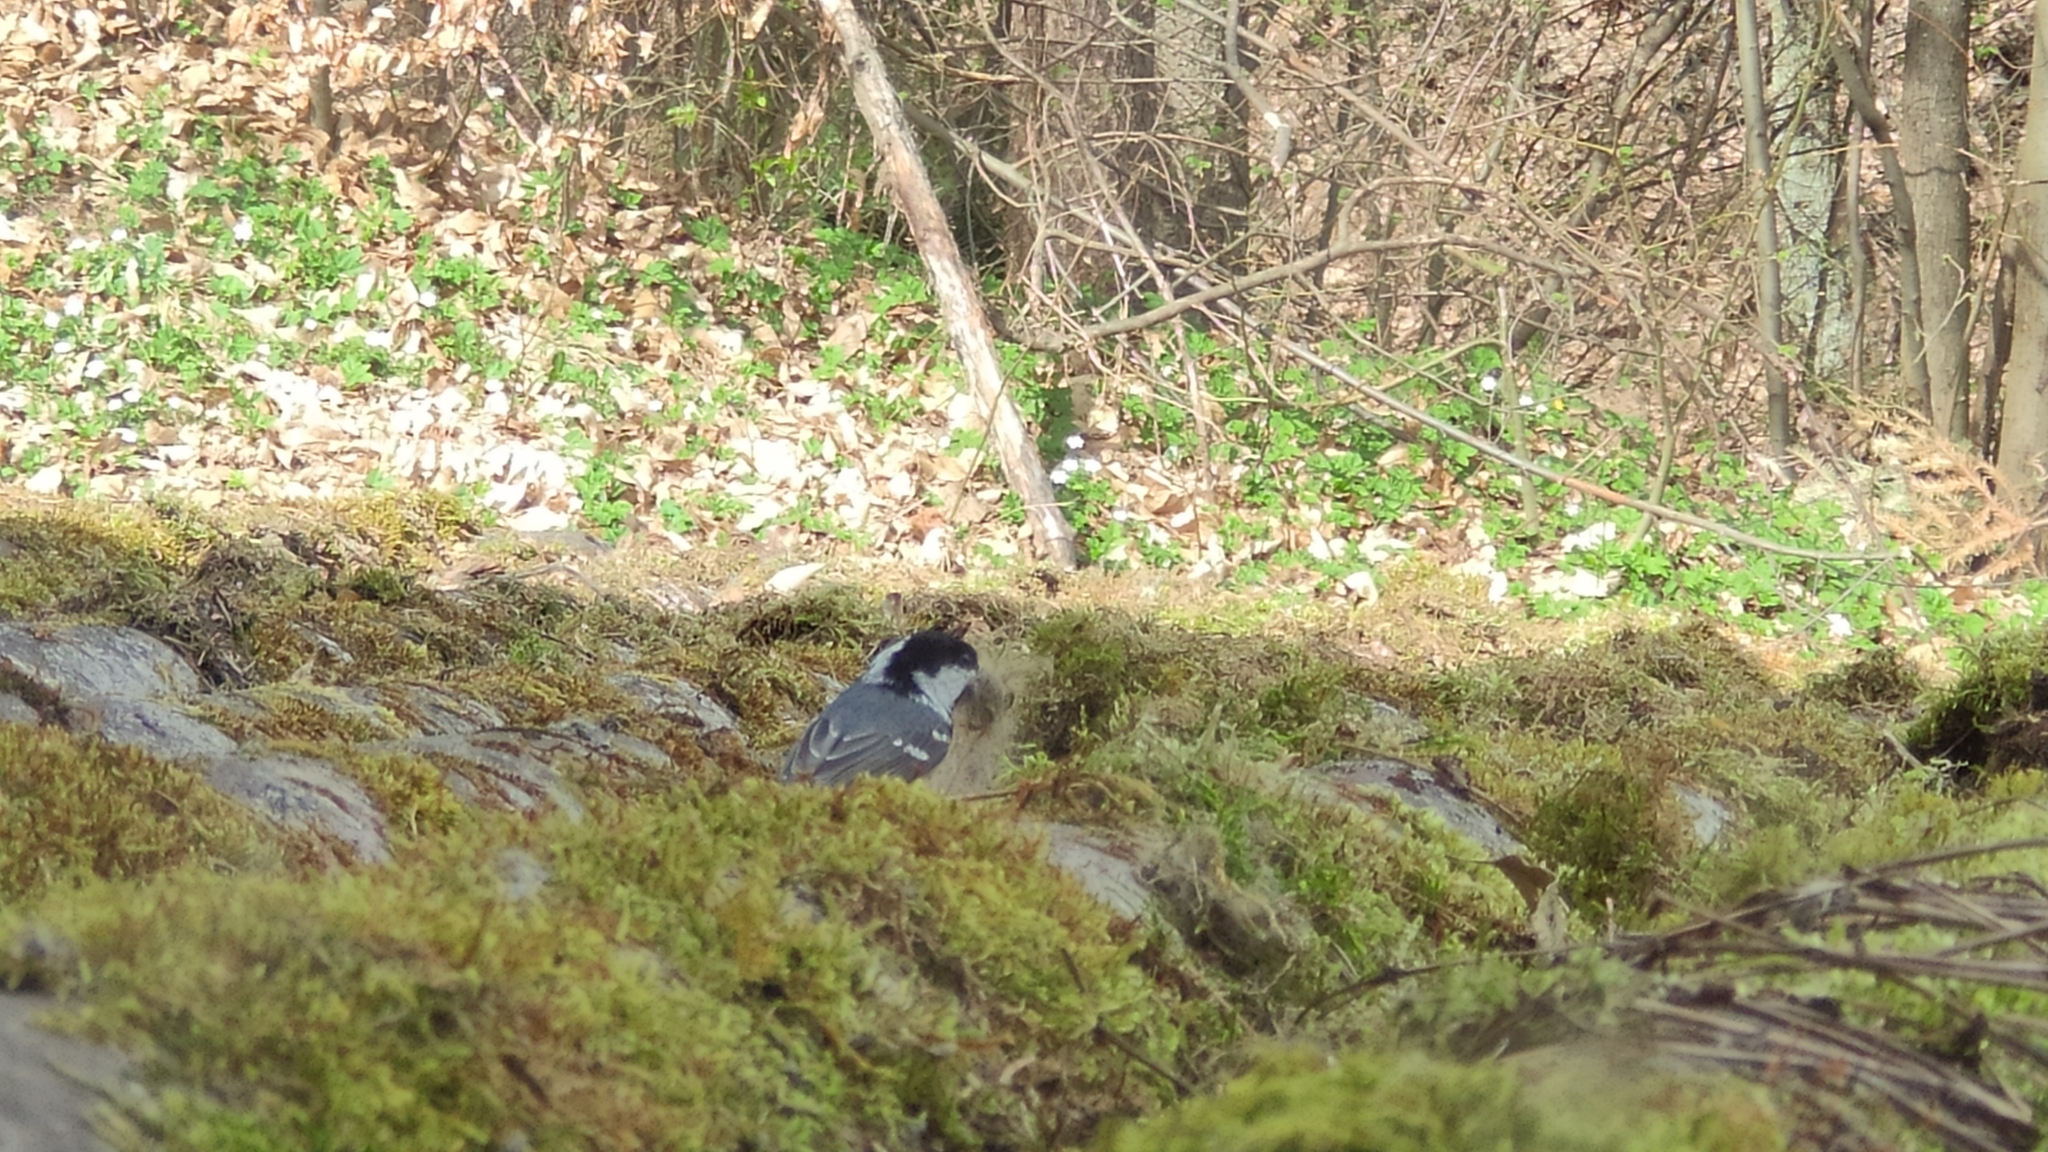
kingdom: Animalia
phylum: Chordata
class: Aves
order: Passeriformes
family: Paridae
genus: Periparus
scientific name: Periparus ater
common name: Coal tit
